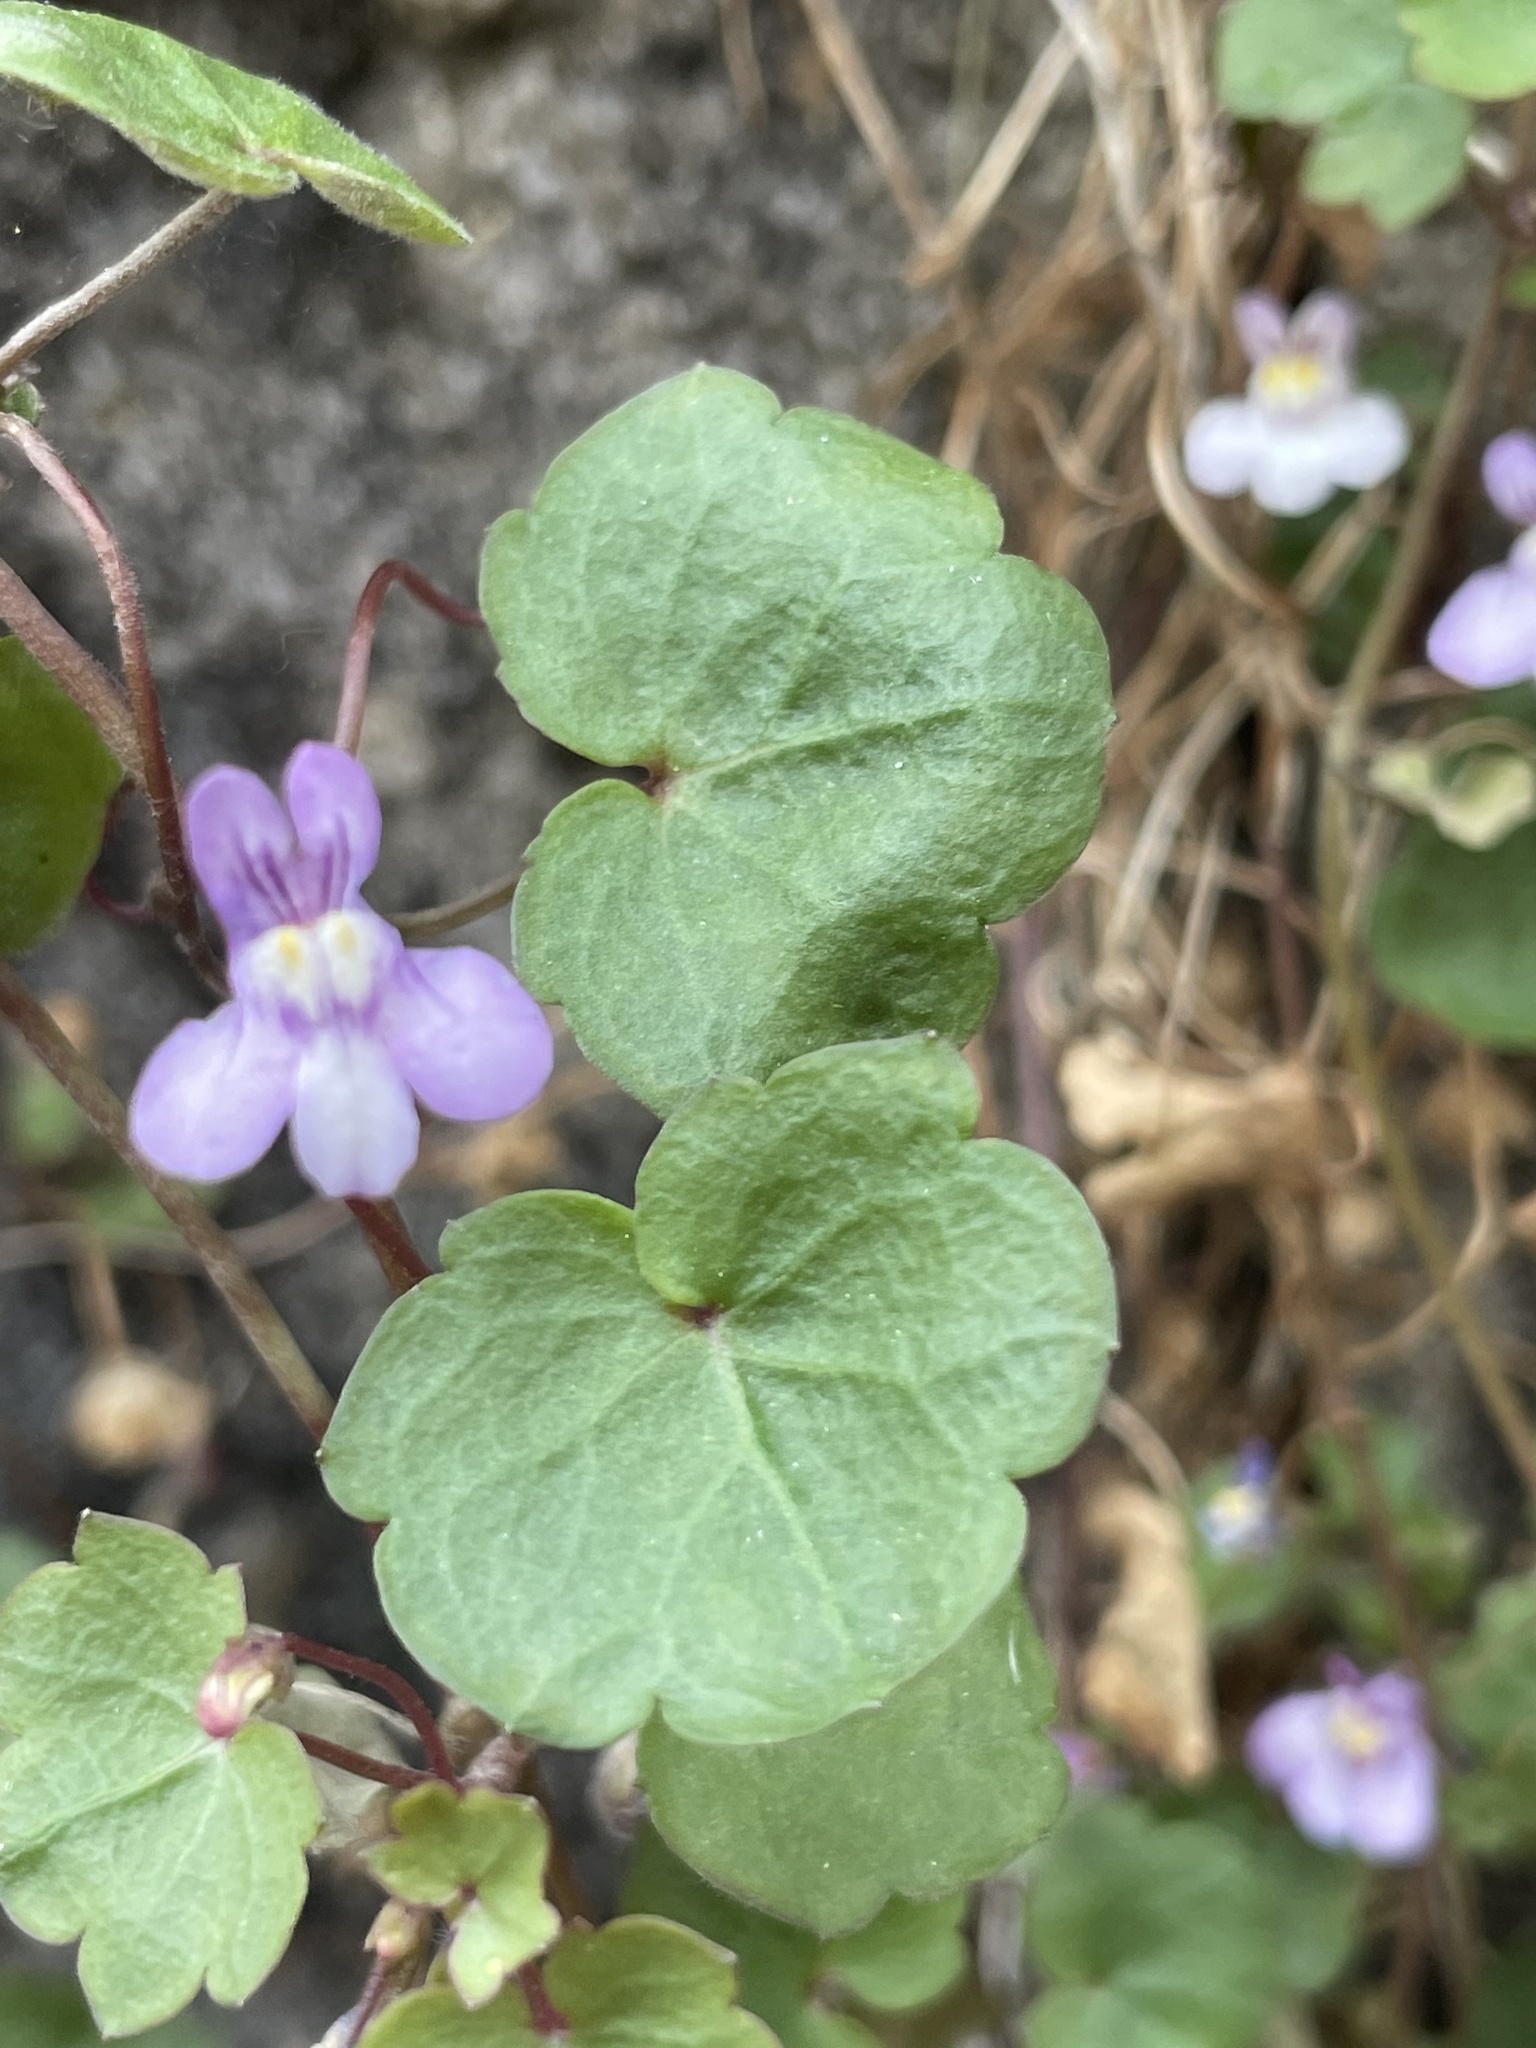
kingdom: Plantae
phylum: Tracheophyta
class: Magnoliopsida
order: Lamiales
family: Plantaginaceae
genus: Cymbalaria
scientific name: Cymbalaria muralis
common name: Ivy-leaved toadflax
